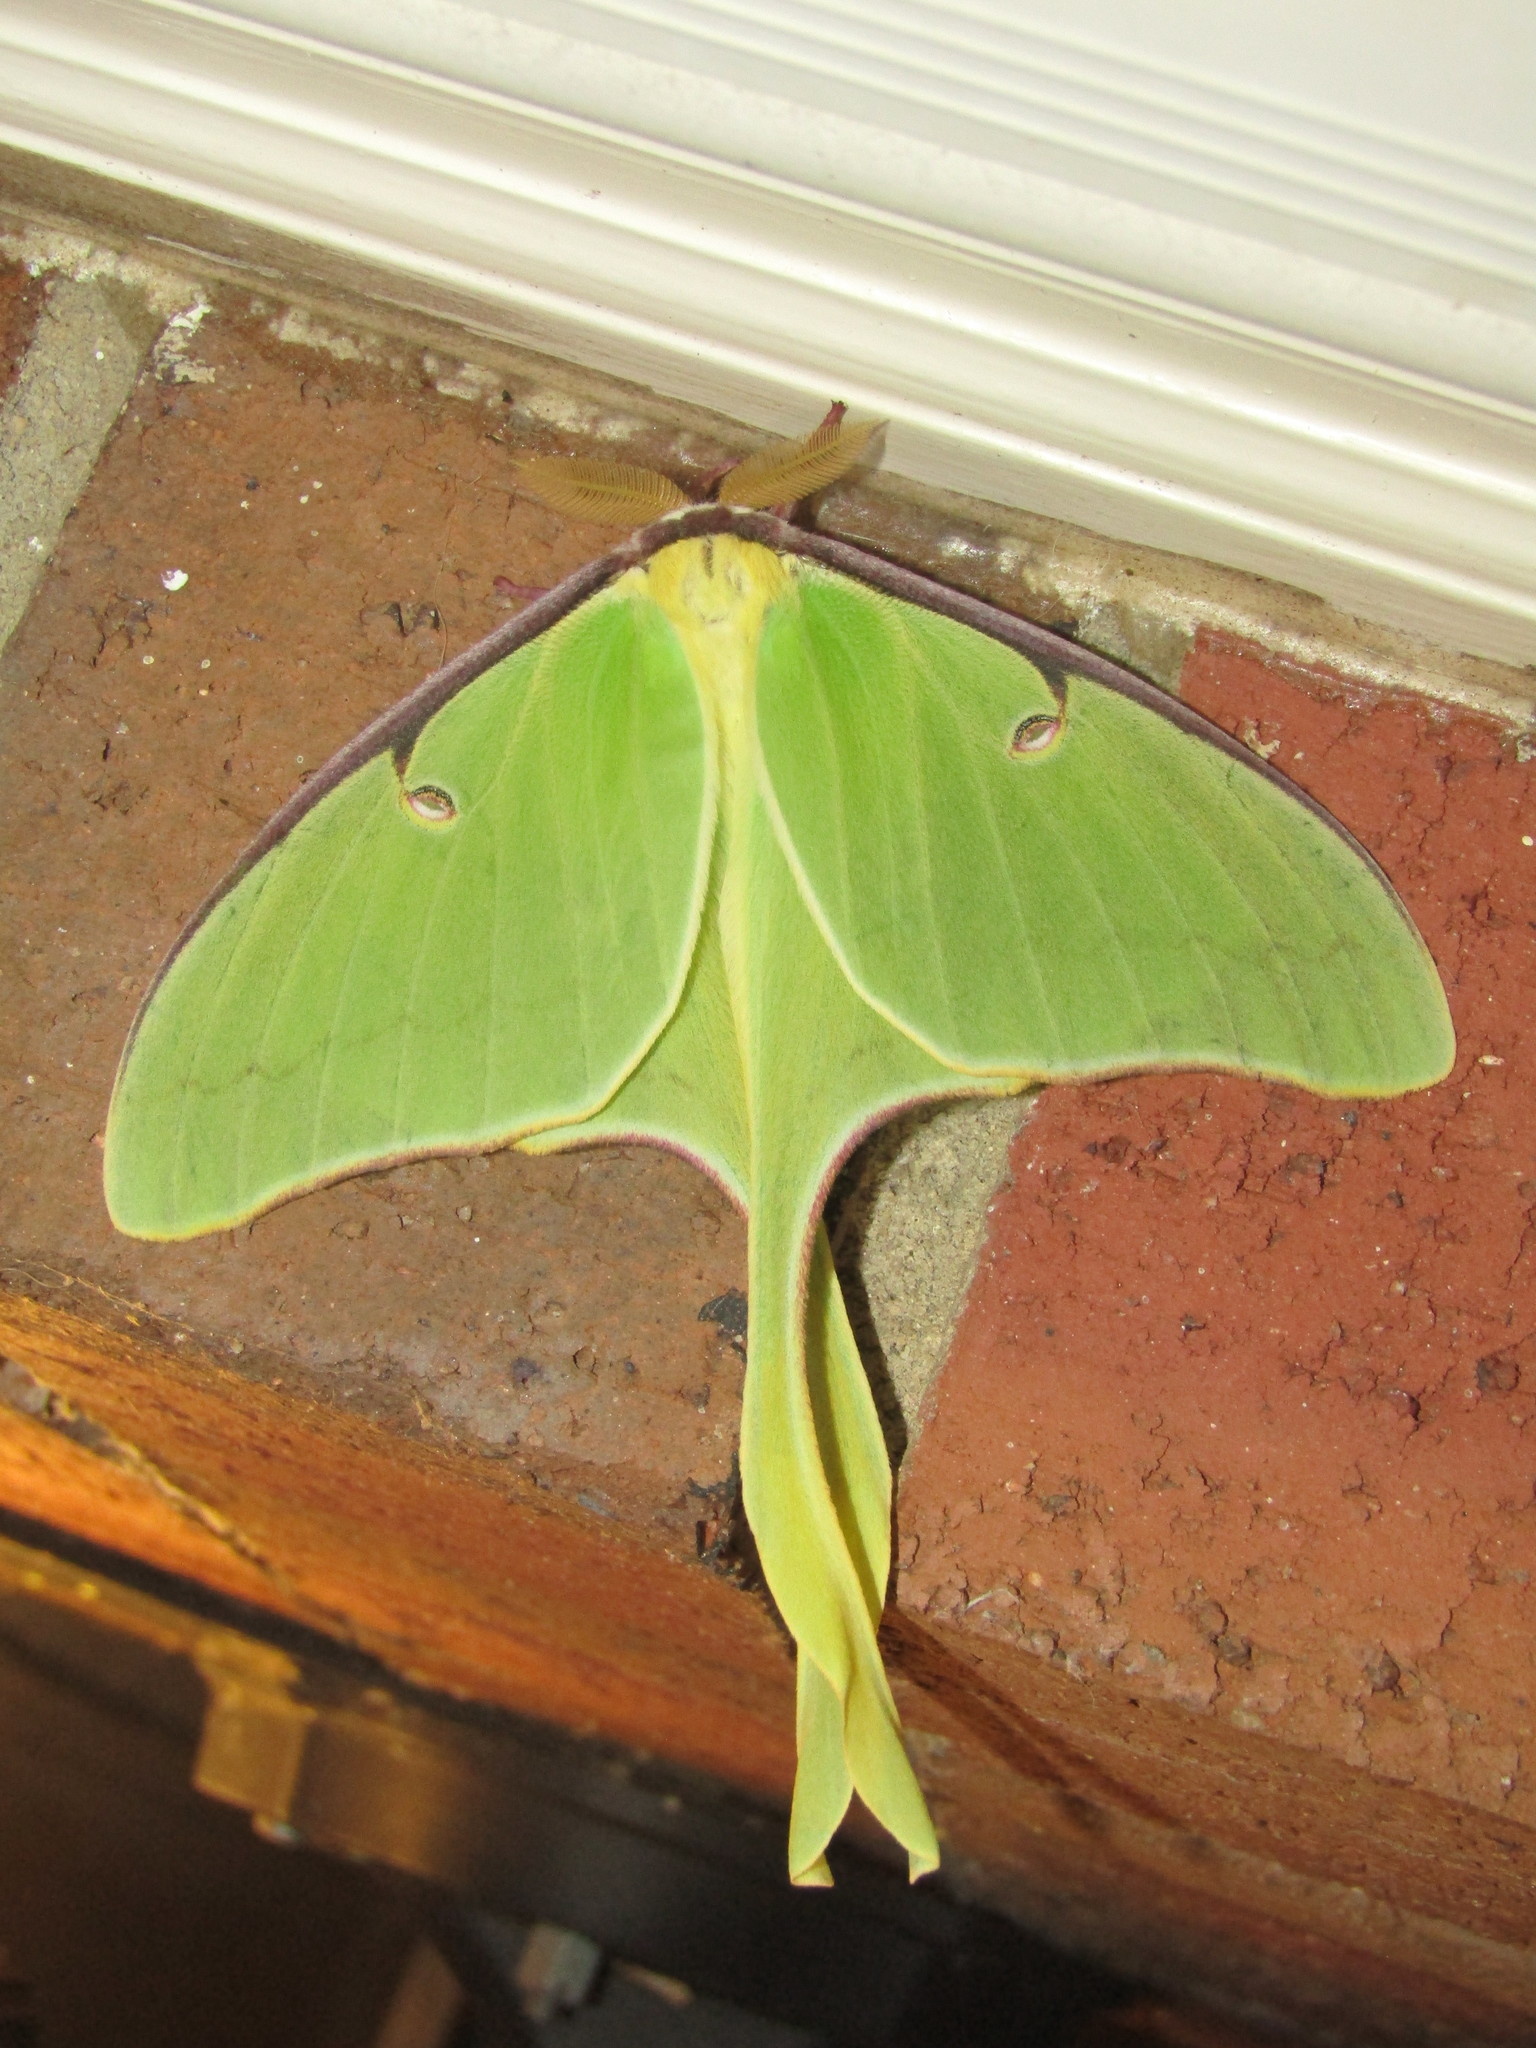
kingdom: Animalia
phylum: Arthropoda
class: Insecta
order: Lepidoptera
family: Saturniidae
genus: Actias
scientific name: Actias luna
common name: Luna moth
